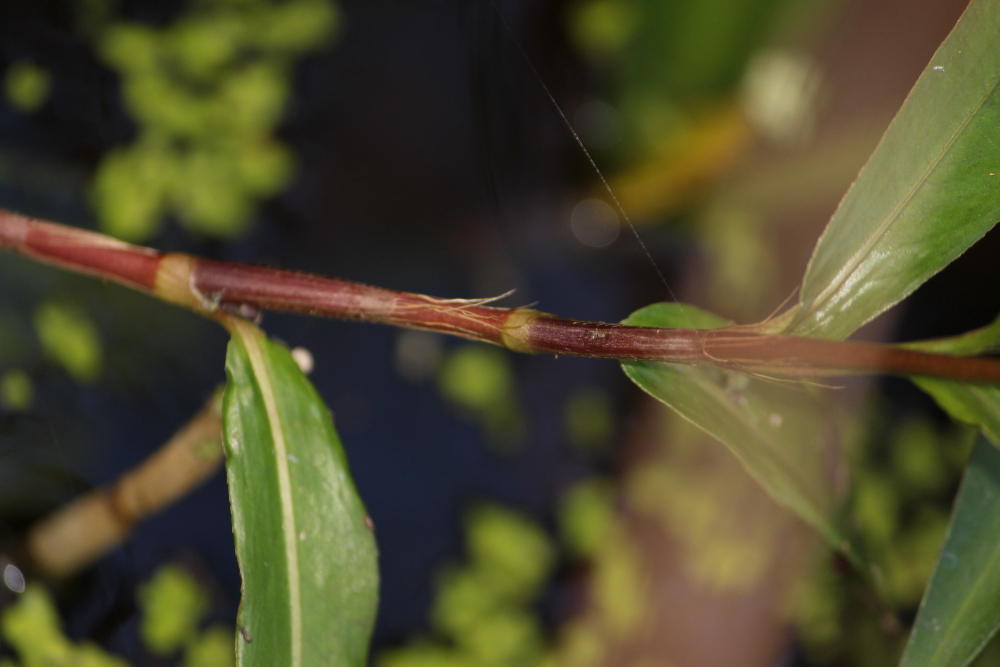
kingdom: Plantae
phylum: Tracheophyta
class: Magnoliopsida
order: Caryophyllales
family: Polygonaceae
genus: Persicaria
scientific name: Persicaria decipiens
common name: Willow-weed
